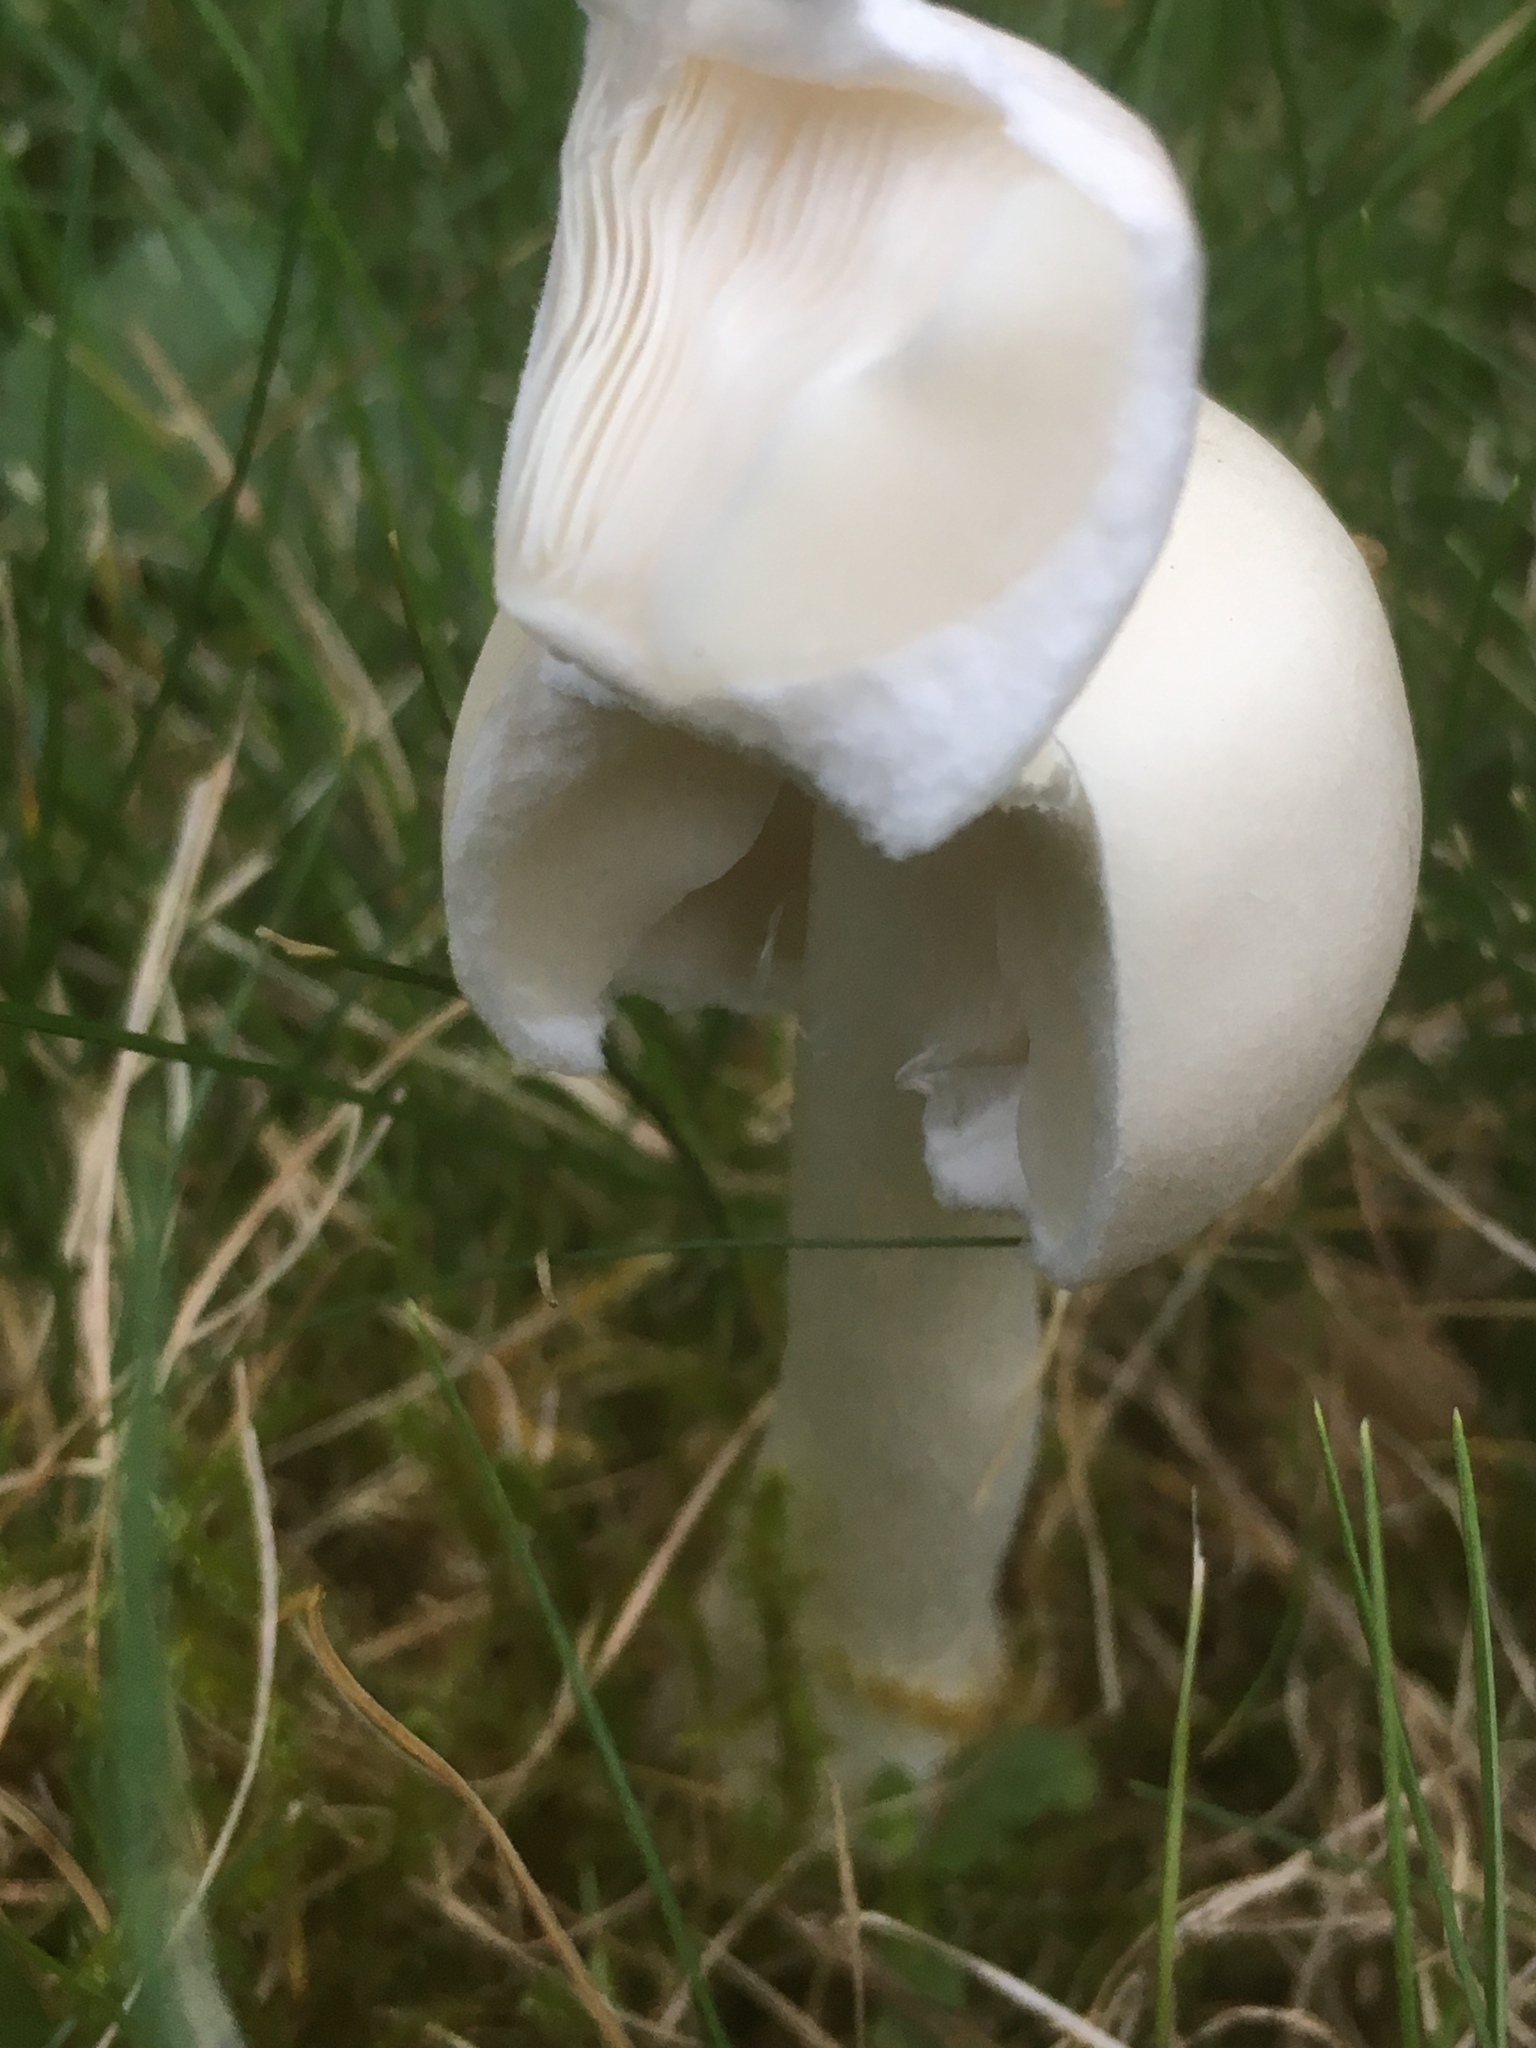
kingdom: Fungi
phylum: Basidiomycota
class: Agaricomycetes
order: Agaricales
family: Agaricaceae
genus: Leucoagaricus
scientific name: Leucoagaricus leucothites
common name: White dapperling
